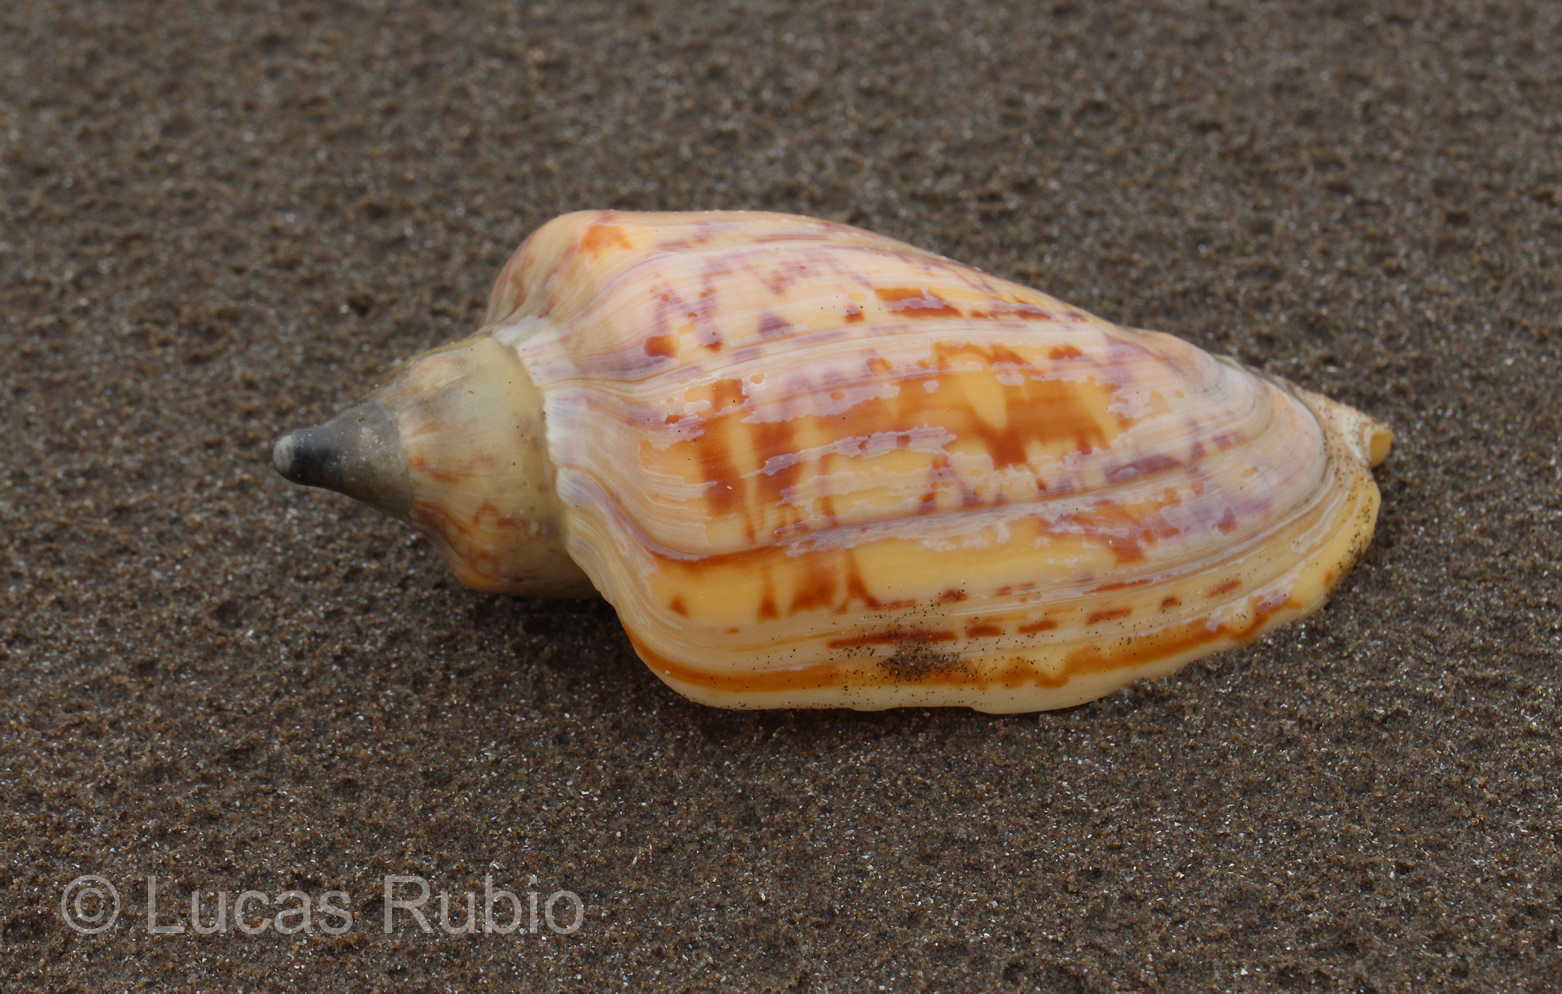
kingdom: Animalia
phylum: Mollusca
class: Gastropoda
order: Neogastropoda
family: Volutidae
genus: Zidona
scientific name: Zidona dufresnii
